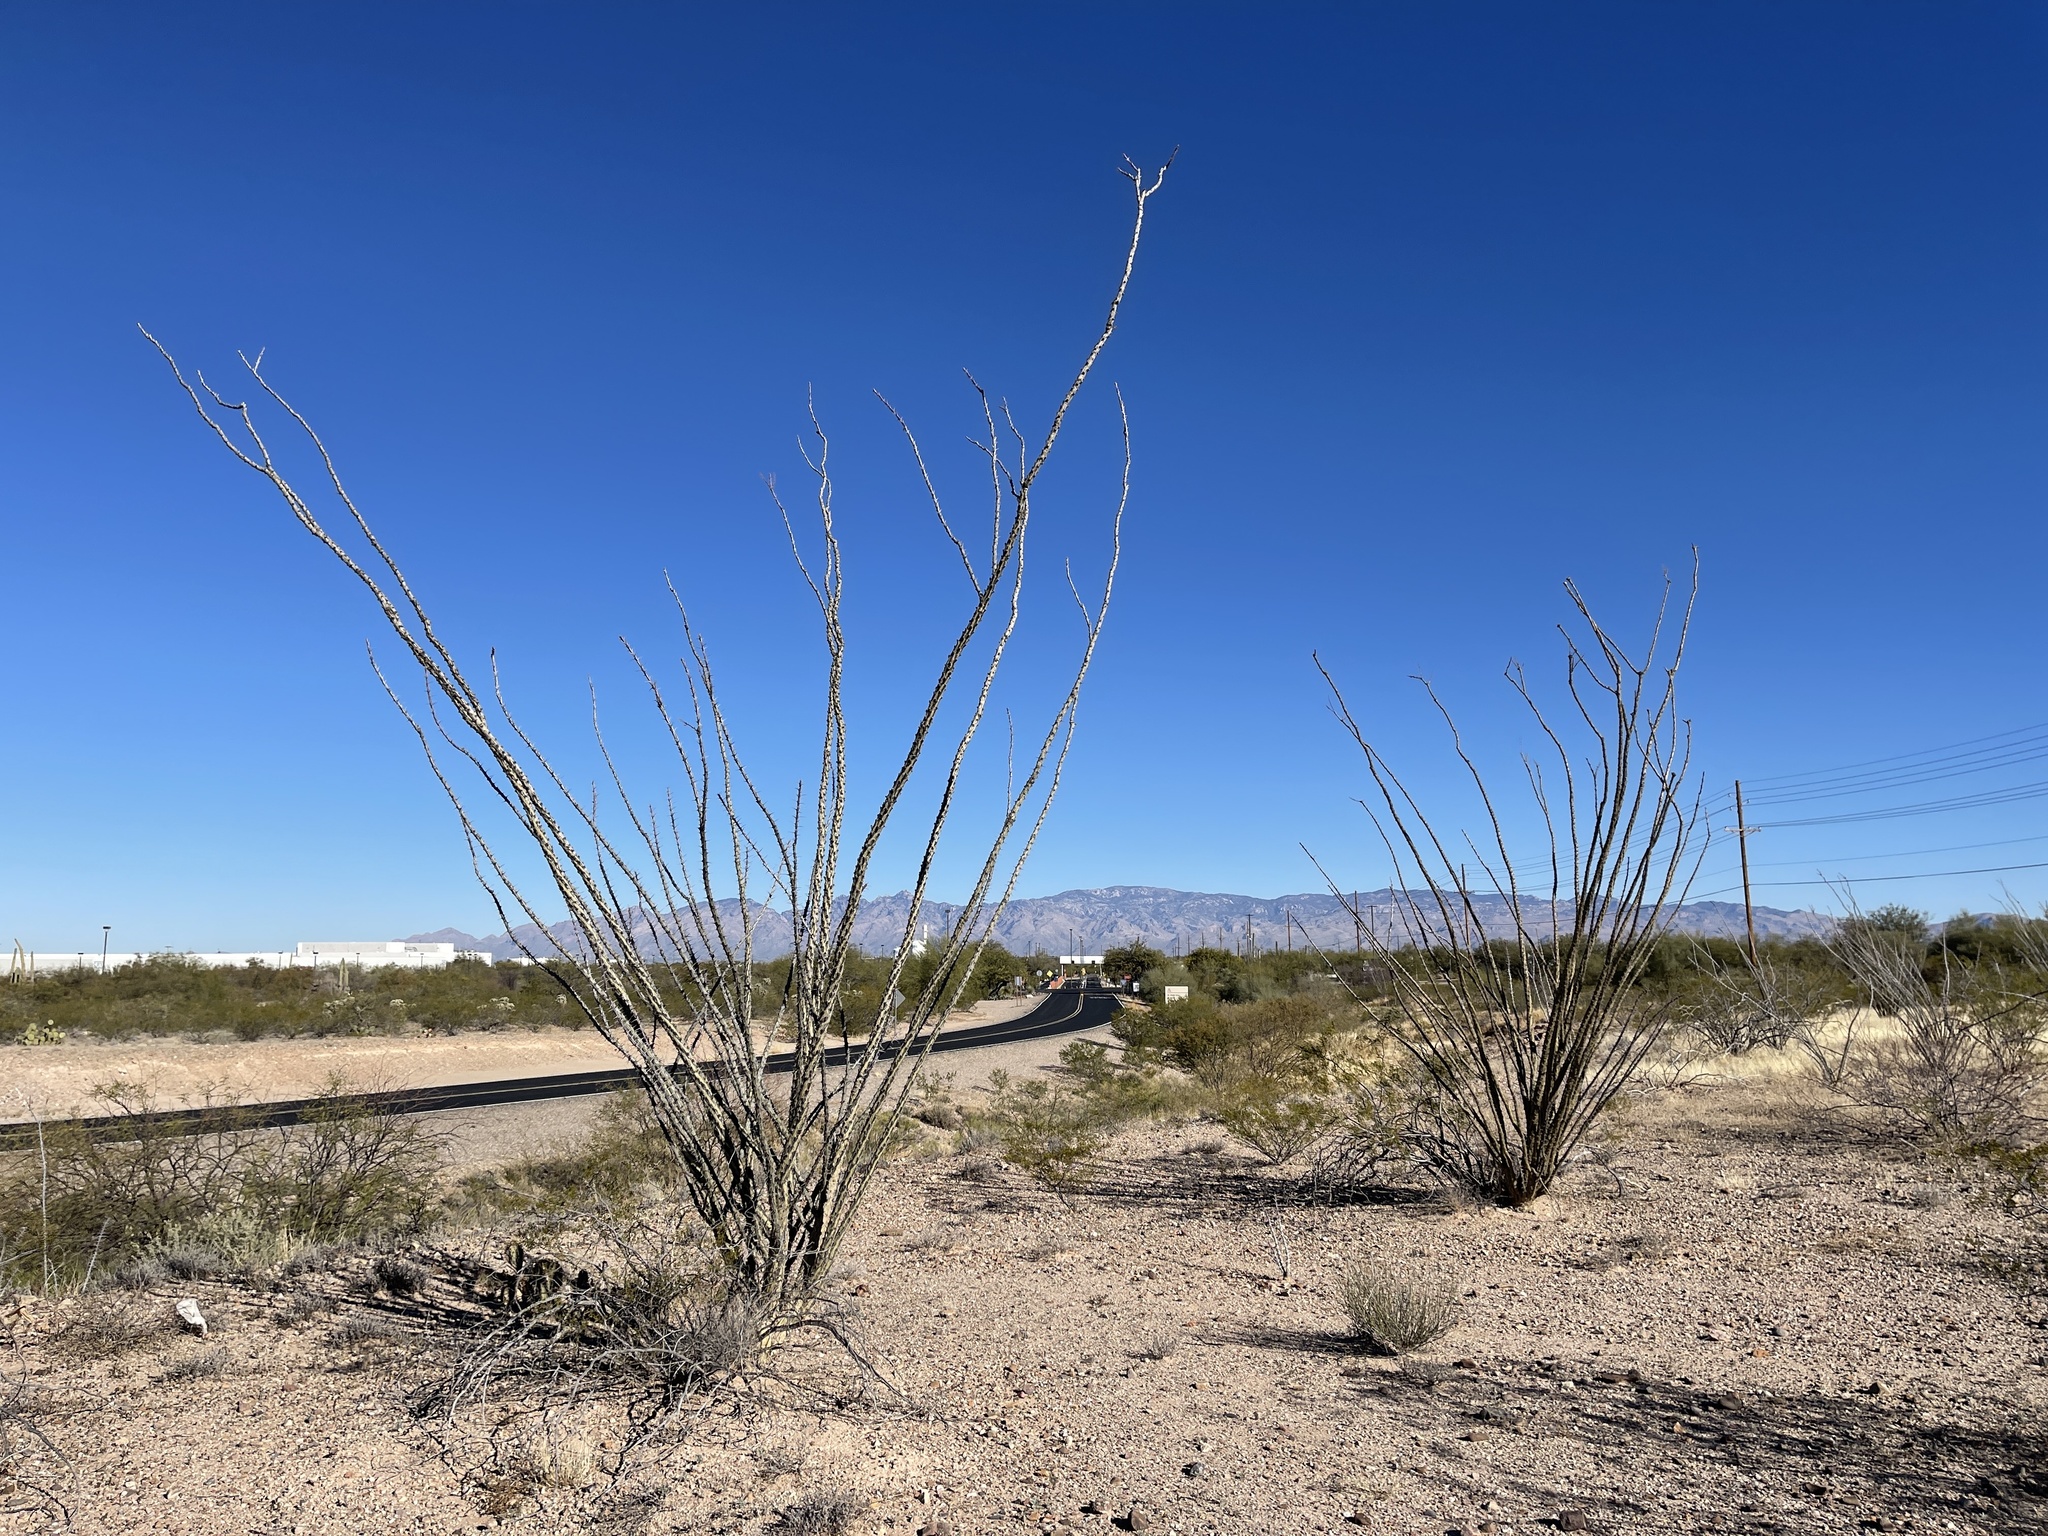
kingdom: Plantae
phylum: Tracheophyta
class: Magnoliopsida
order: Ericales
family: Fouquieriaceae
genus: Fouquieria
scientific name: Fouquieria splendens
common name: Vine-cactus
